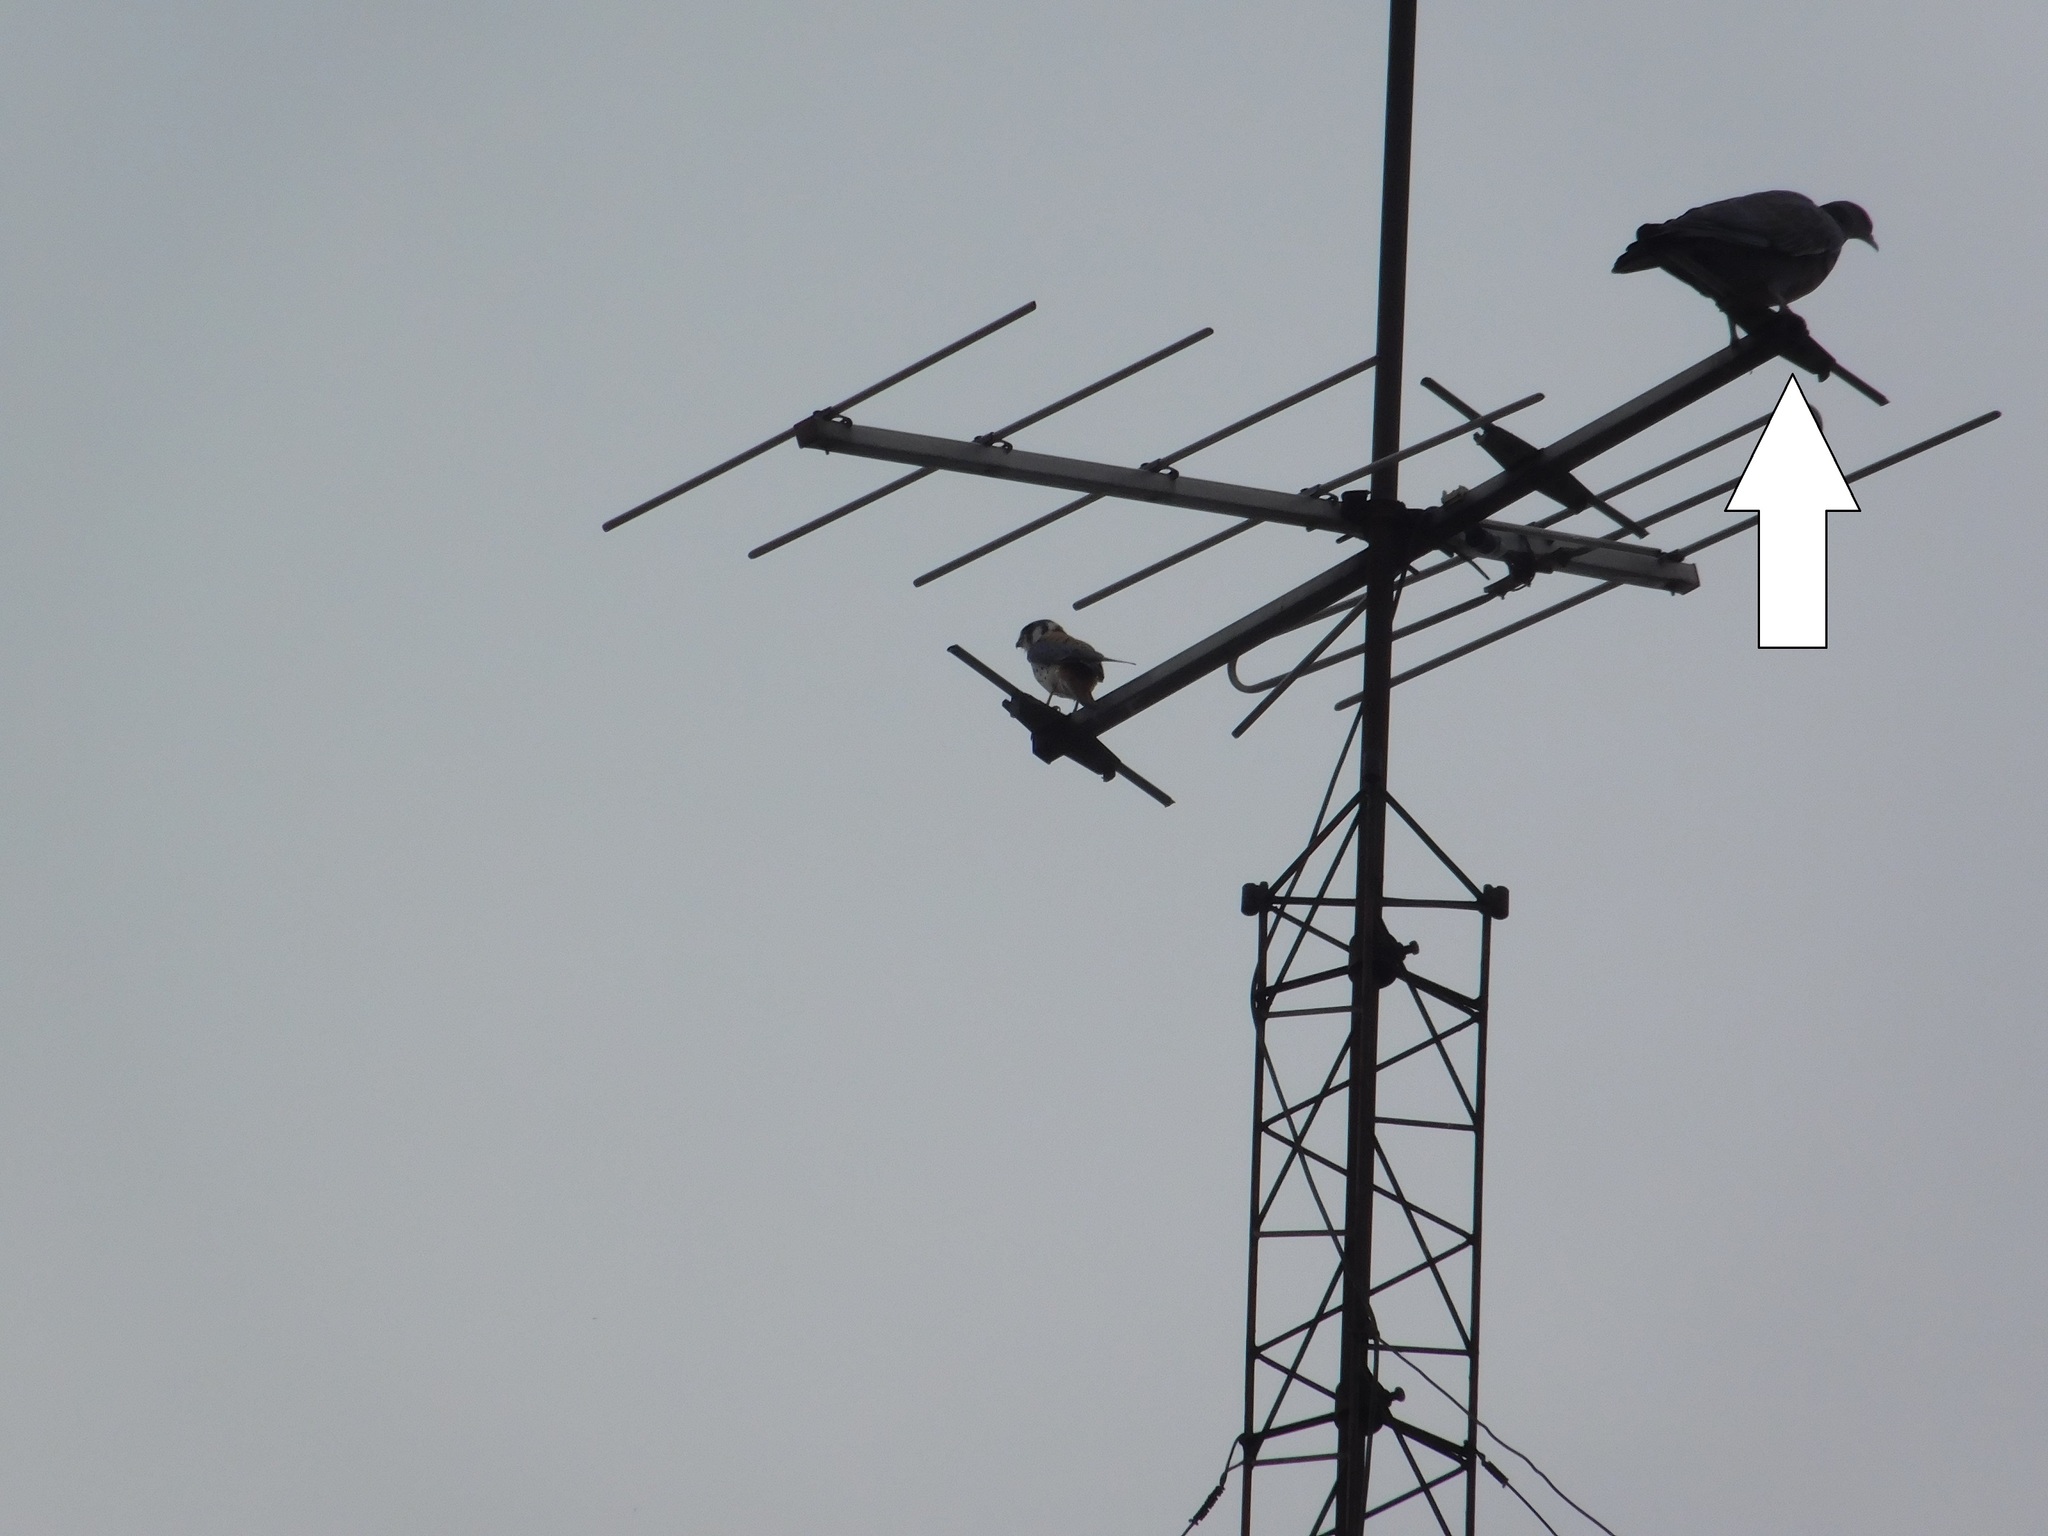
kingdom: Animalia
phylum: Chordata
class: Aves
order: Columbiformes
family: Columbidae
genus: Patagioenas
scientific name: Patagioenas picazuro
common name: Picazuro pigeon
